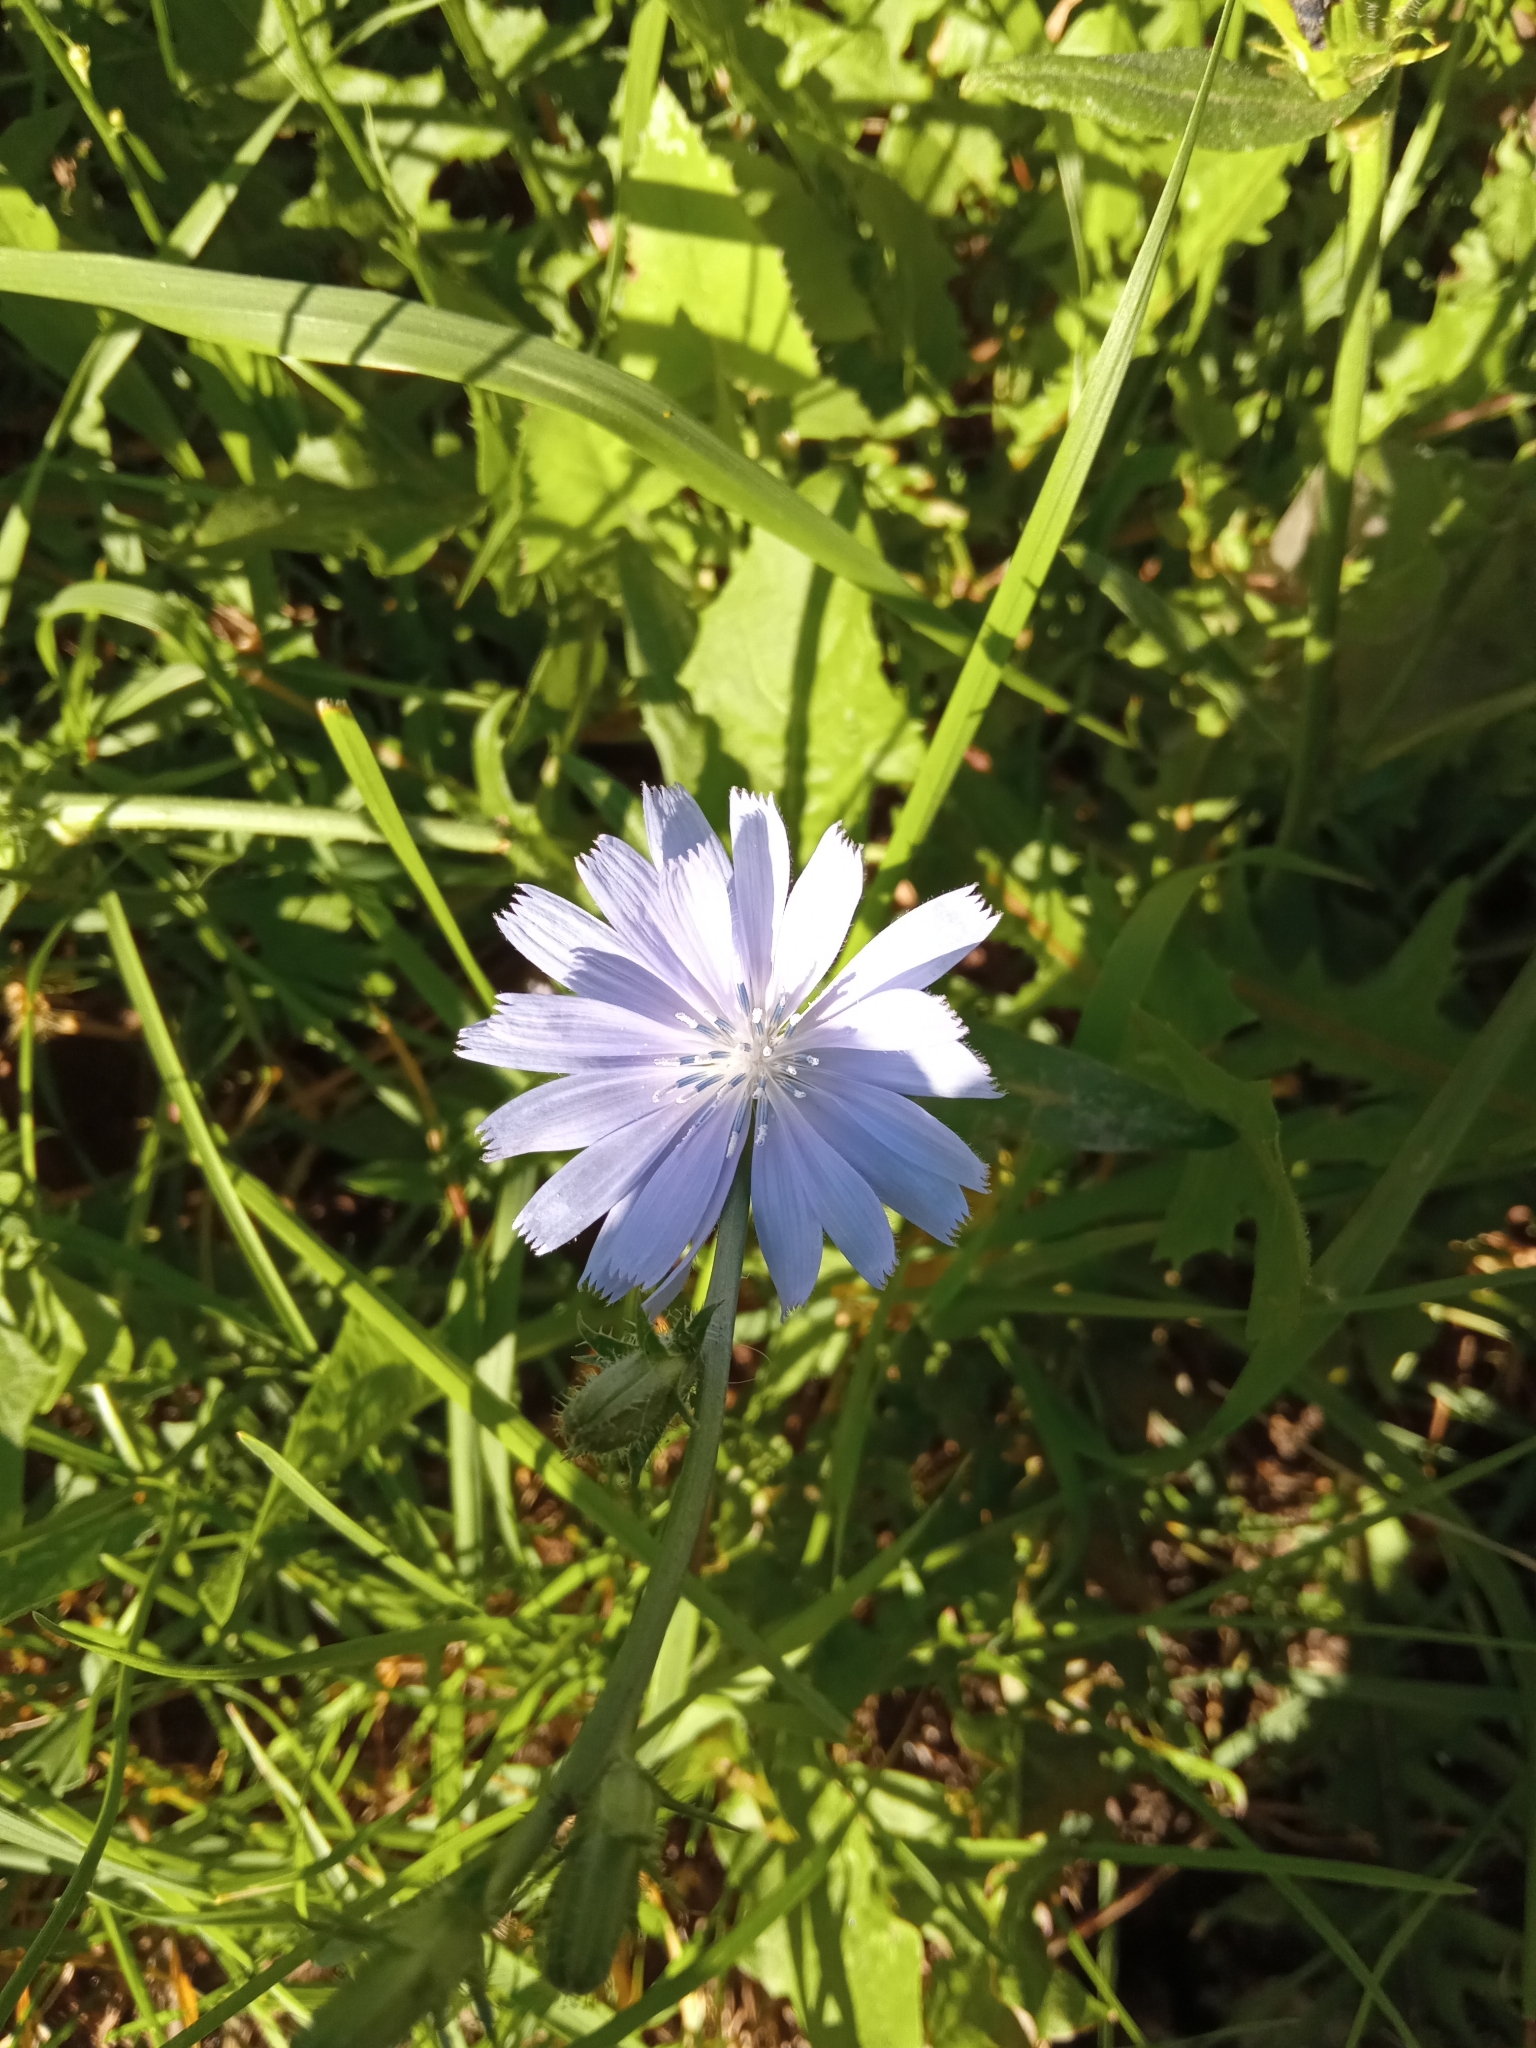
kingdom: Plantae
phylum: Tracheophyta
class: Magnoliopsida
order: Asterales
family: Asteraceae
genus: Cichorium
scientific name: Cichorium intybus
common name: Chicory
